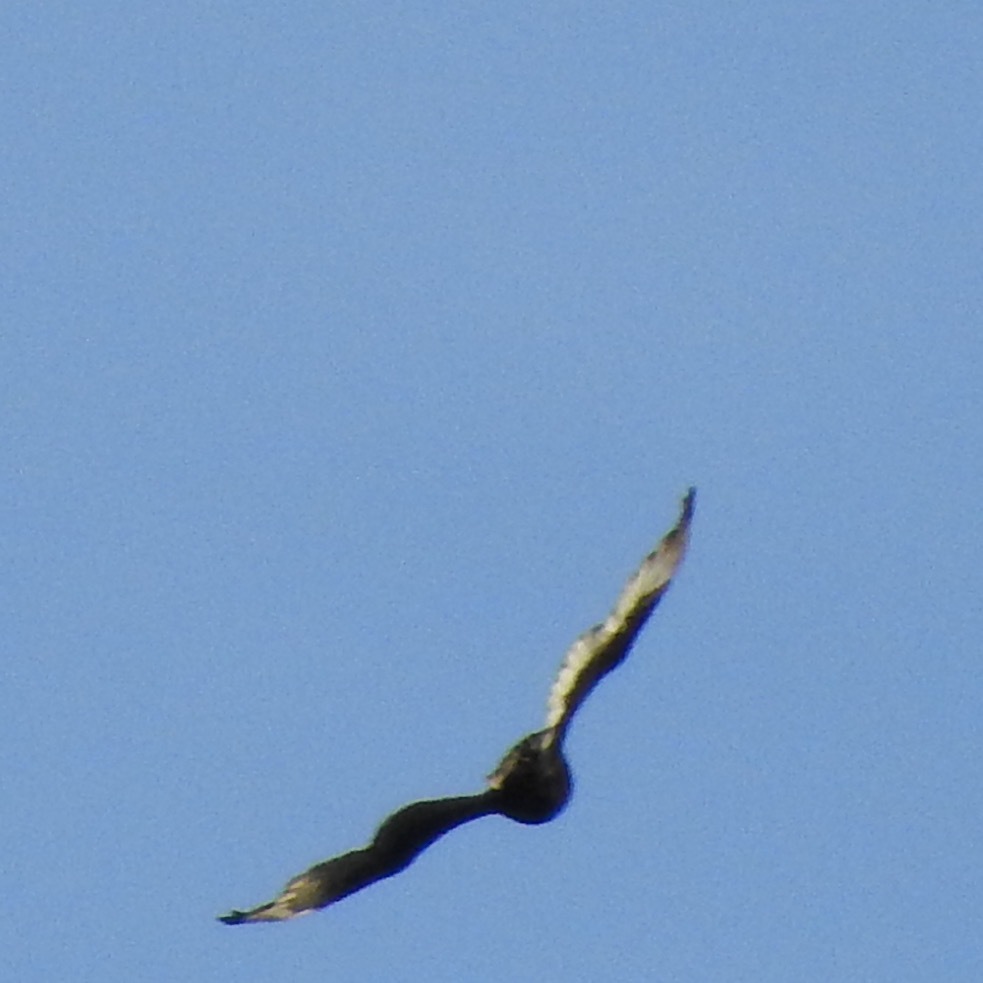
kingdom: Animalia
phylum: Chordata
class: Aves
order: Accipitriformes
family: Cathartidae
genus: Cathartes
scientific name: Cathartes aura
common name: Turkey vulture
